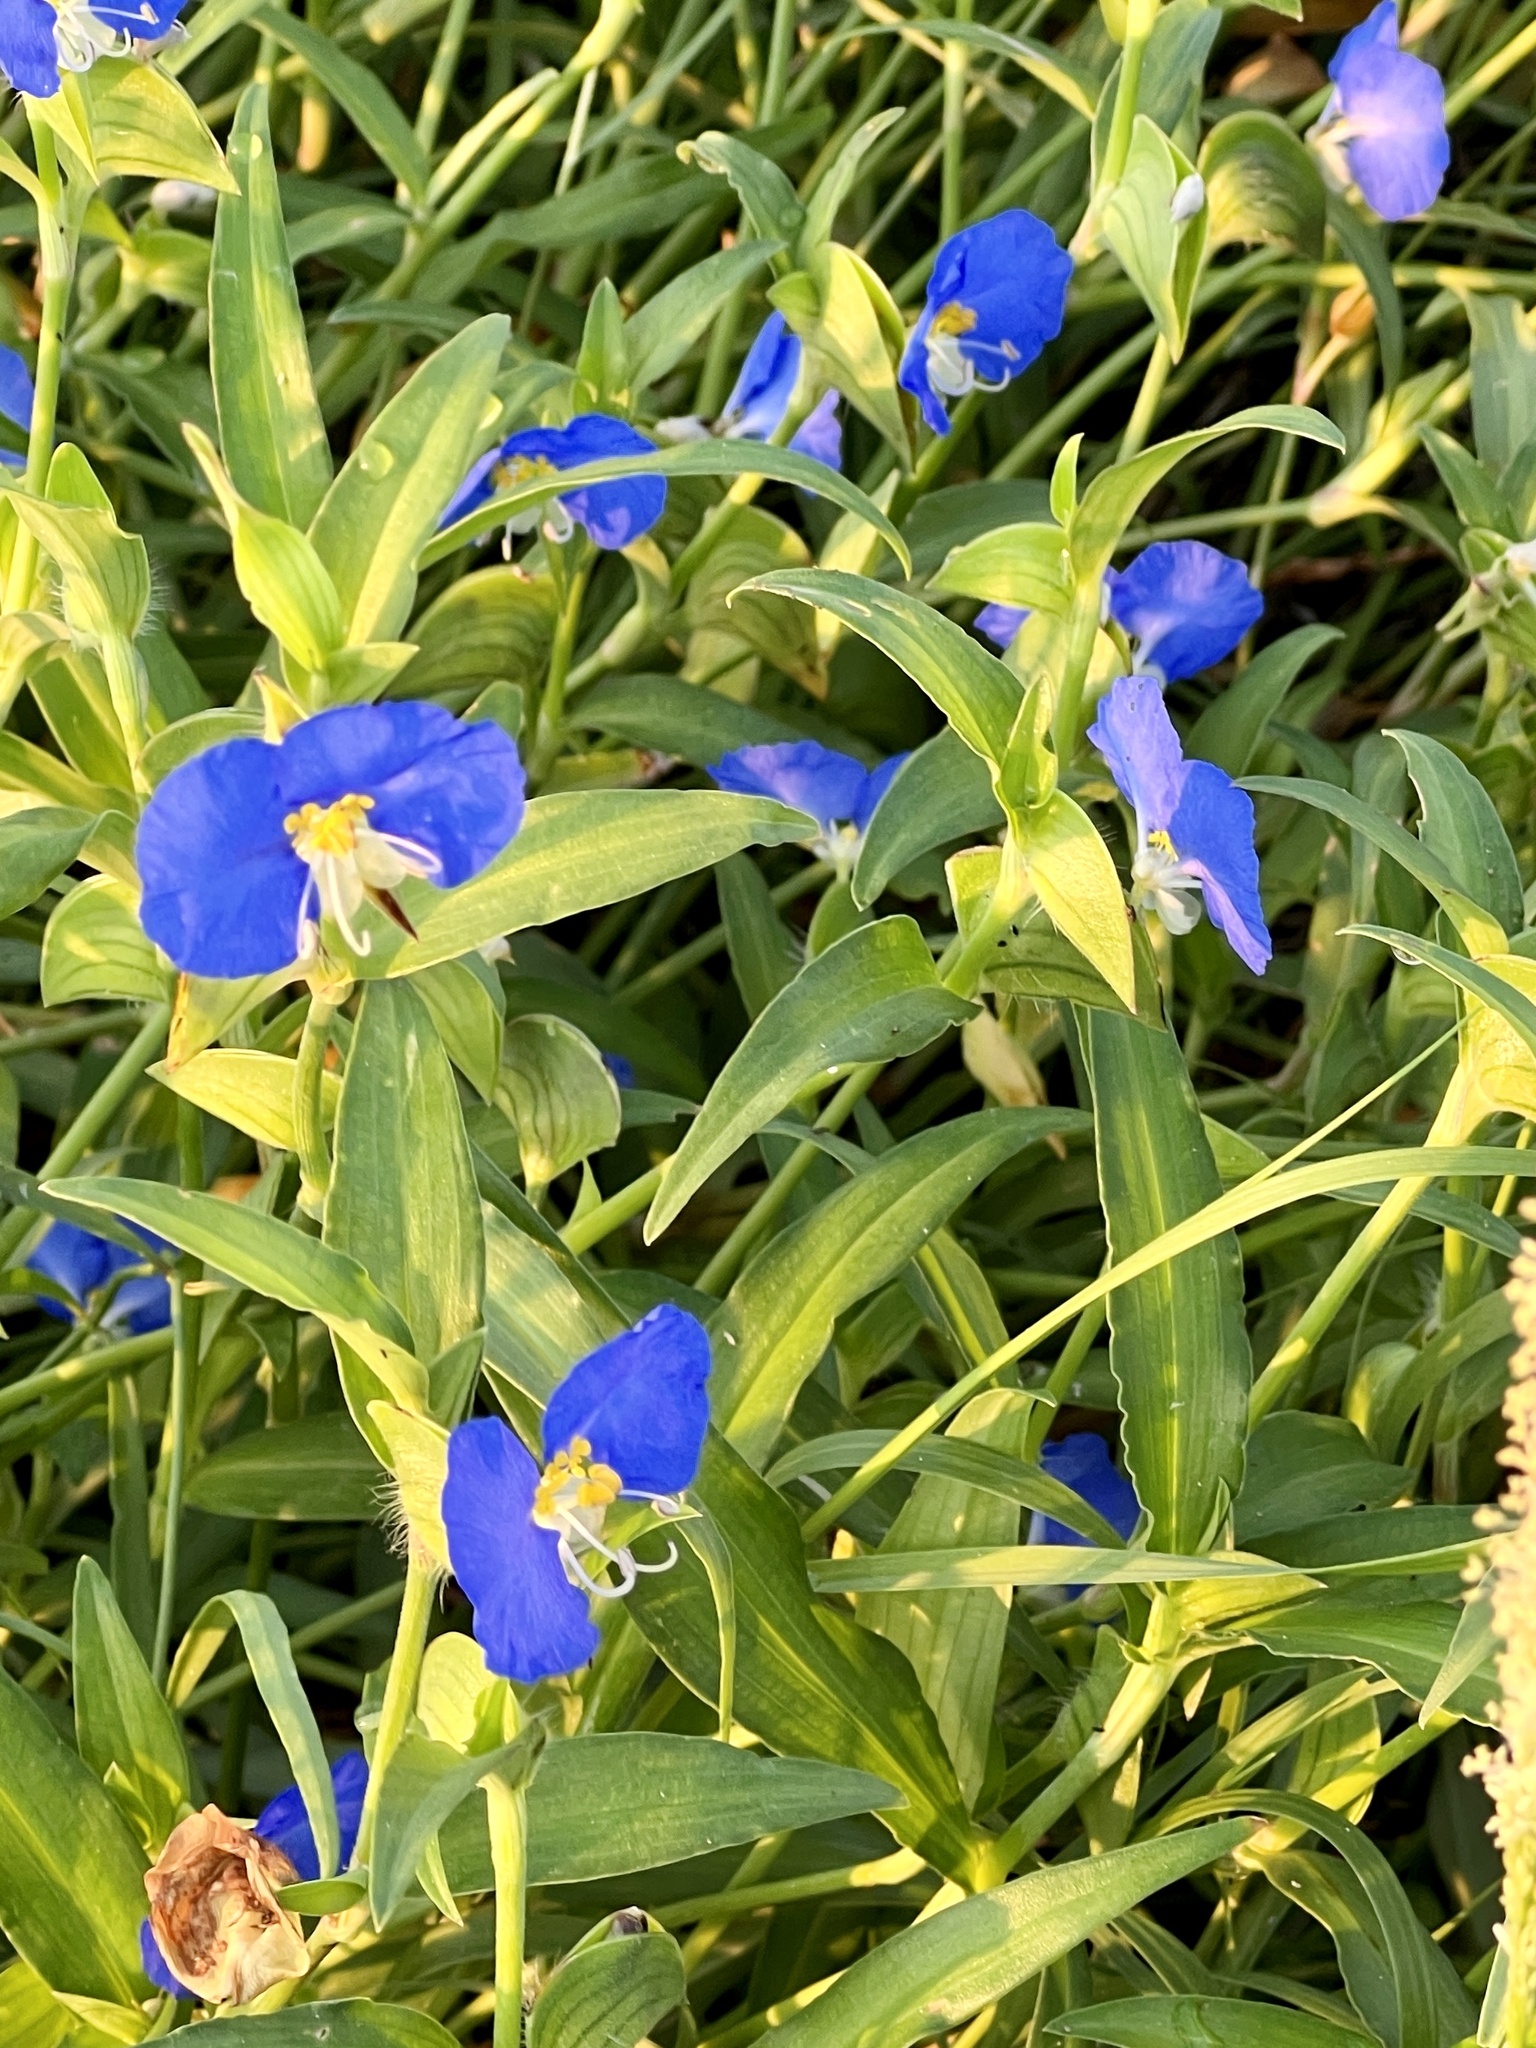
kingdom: Plantae
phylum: Tracheophyta
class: Liliopsida
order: Commelinales
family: Commelinaceae
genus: Commelina
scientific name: Commelina erecta
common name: Blousel blommetjie
